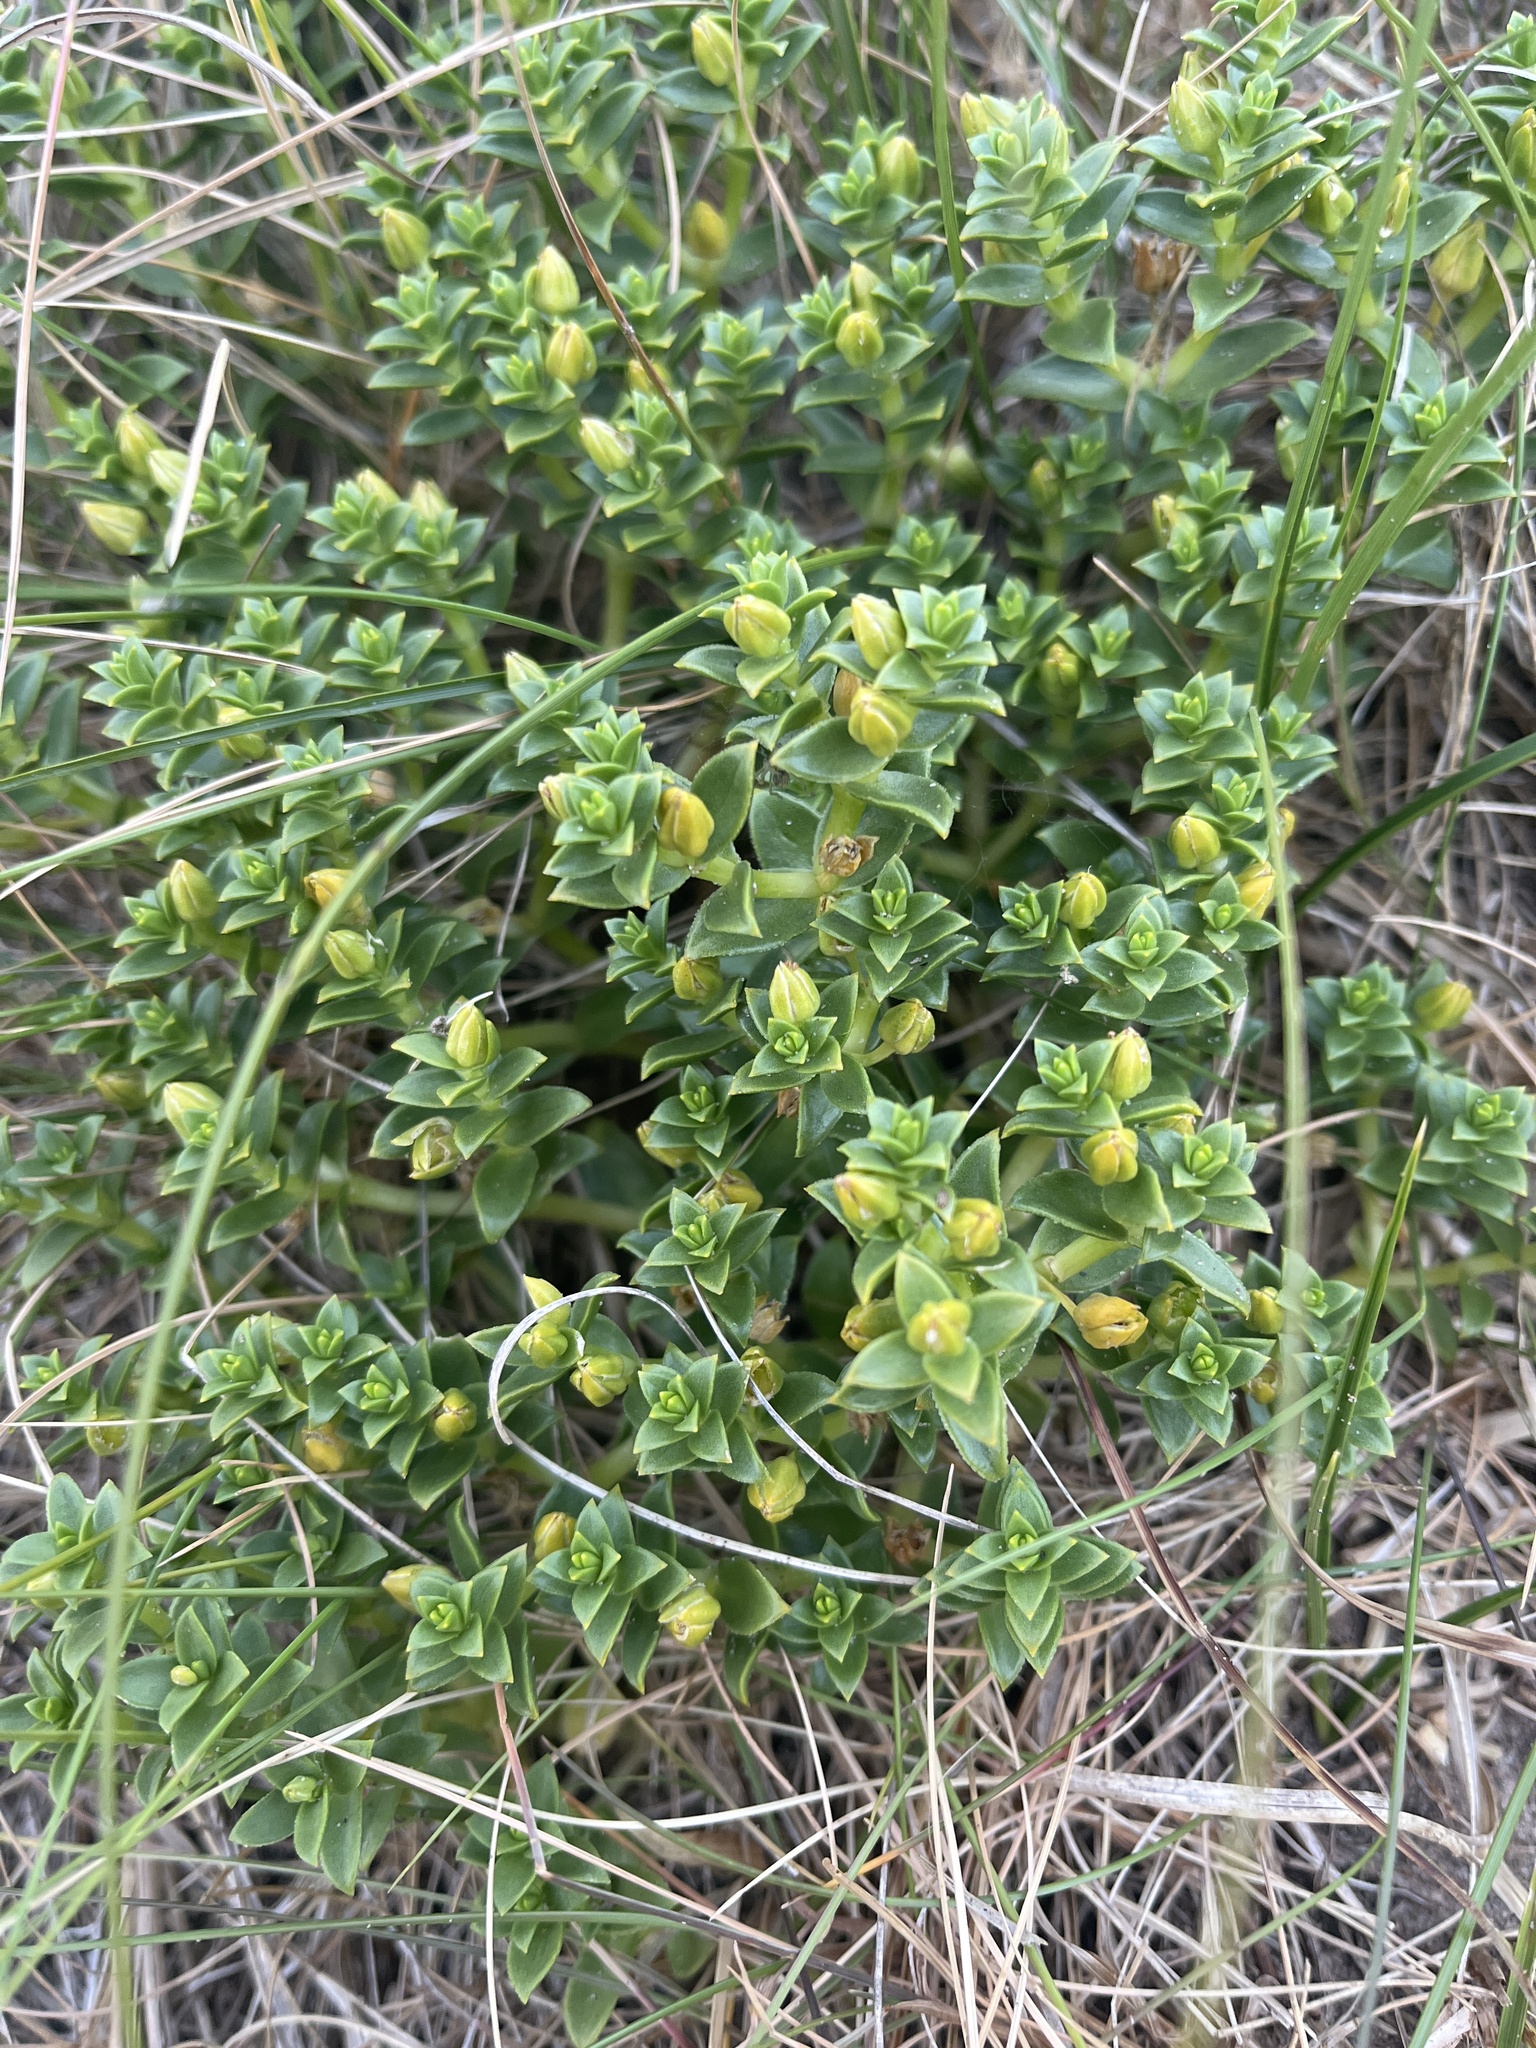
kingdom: Plantae
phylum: Tracheophyta
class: Magnoliopsida
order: Caryophyllales
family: Caryophyllaceae
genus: Honckenya
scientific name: Honckenya peploides
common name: Sea sandwort
